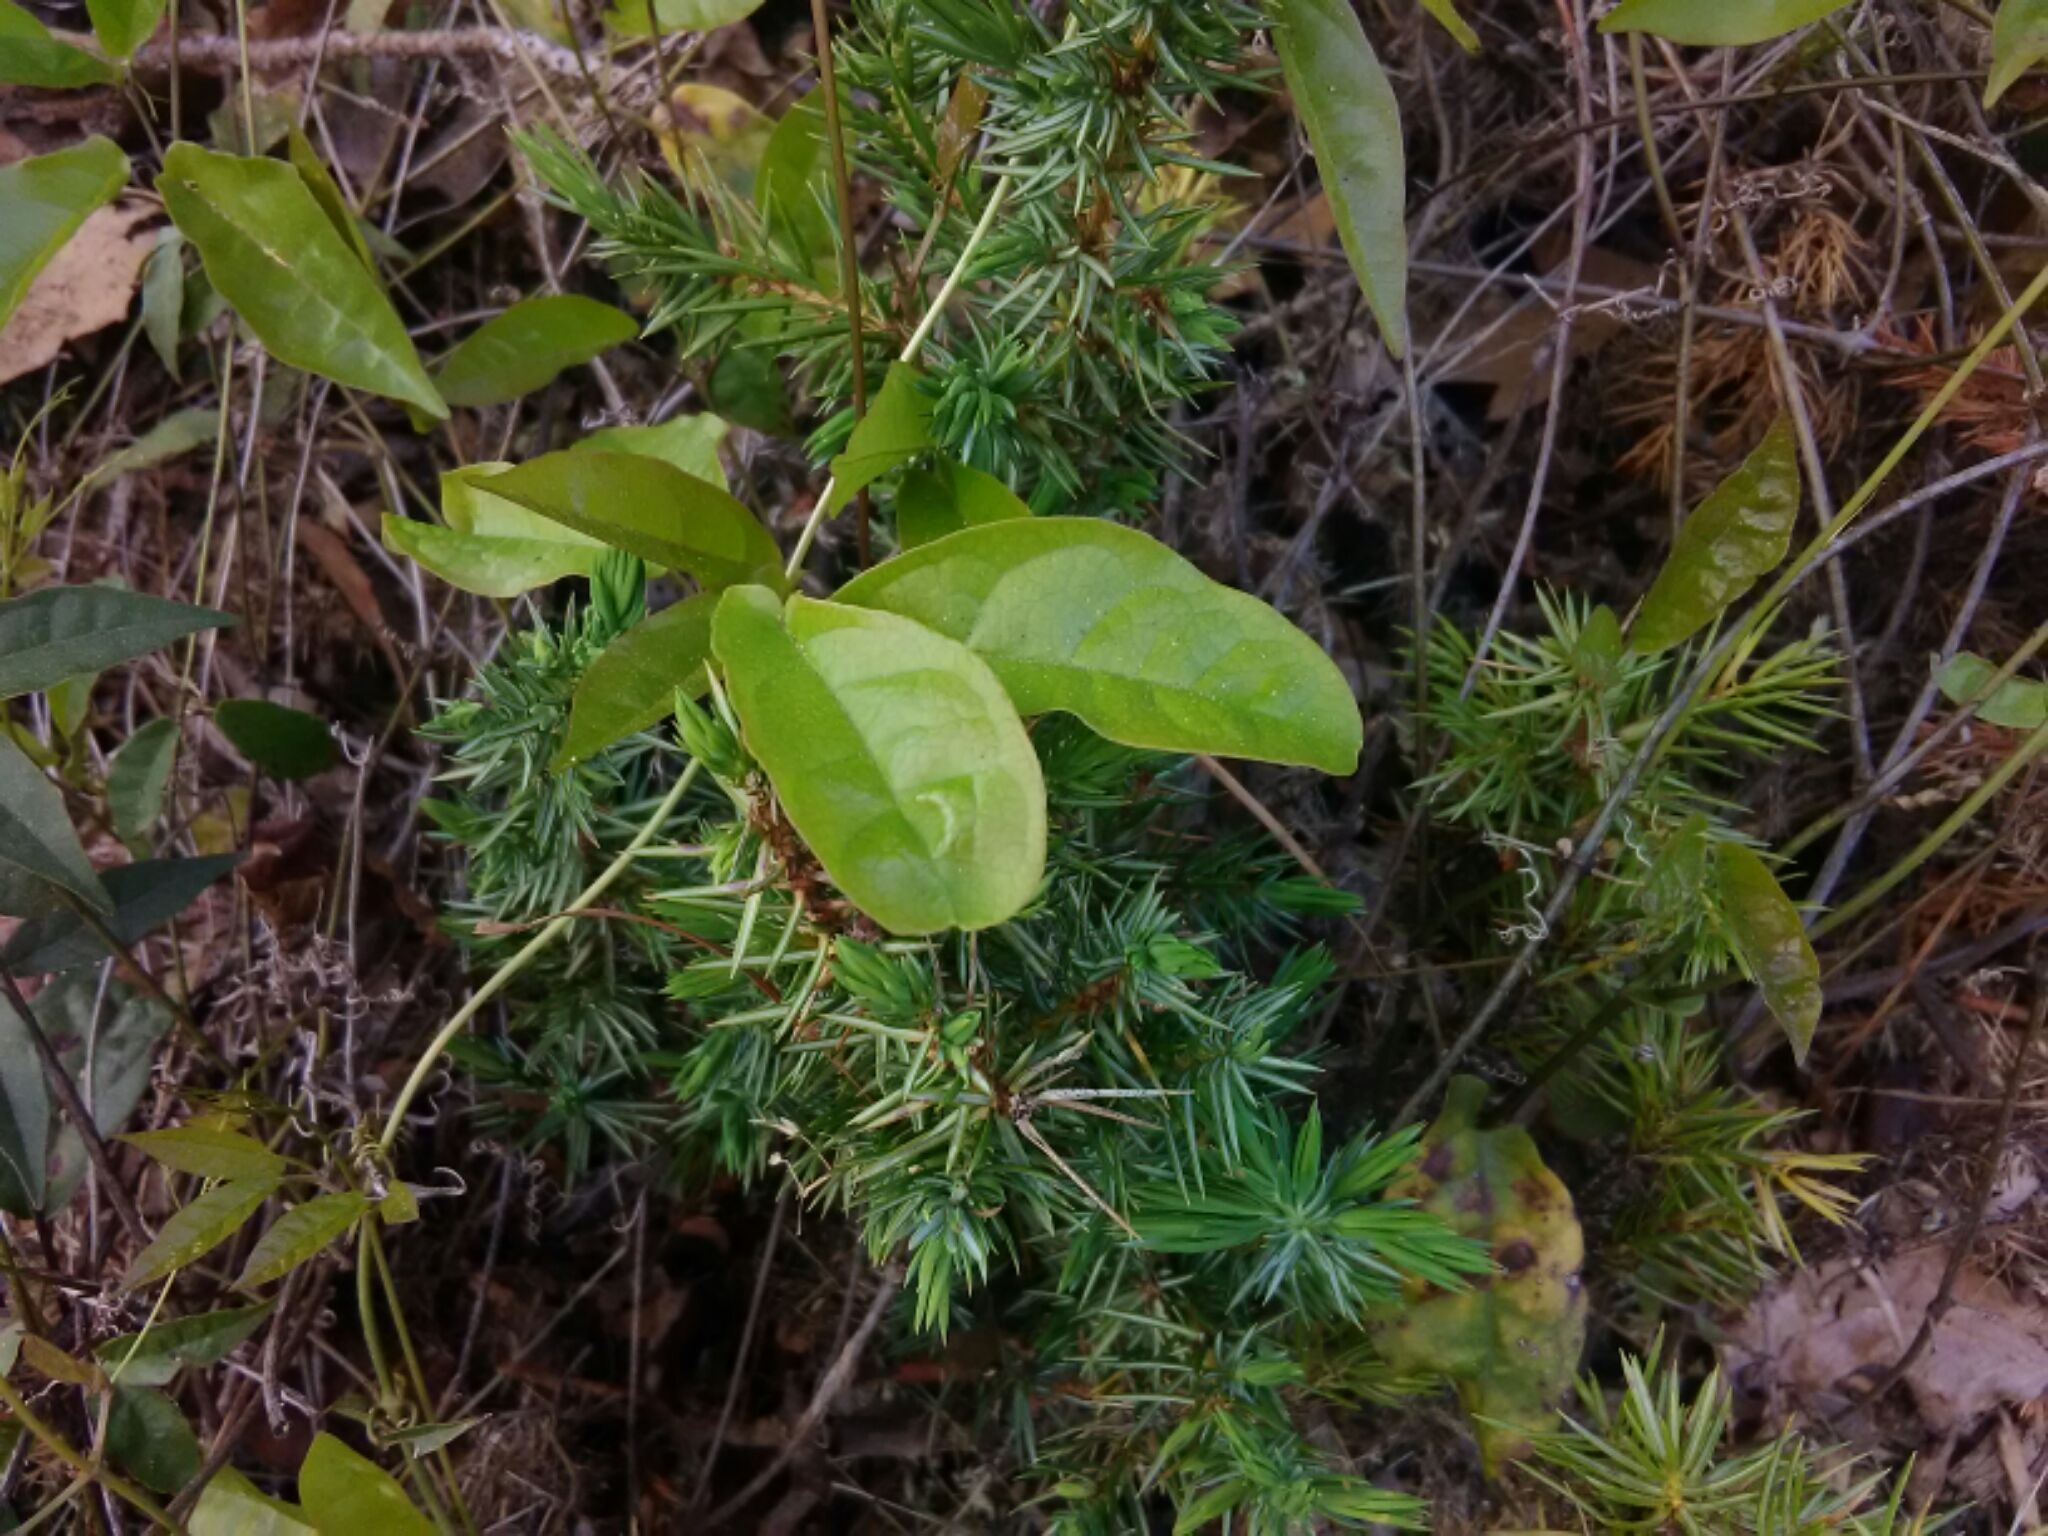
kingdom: Plantae
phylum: Tracheophyta
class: Magnoliopsida
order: Lamiales
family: Bignoniaceae
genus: Bignonia
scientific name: Bignonia capreolata
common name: Crossvine
